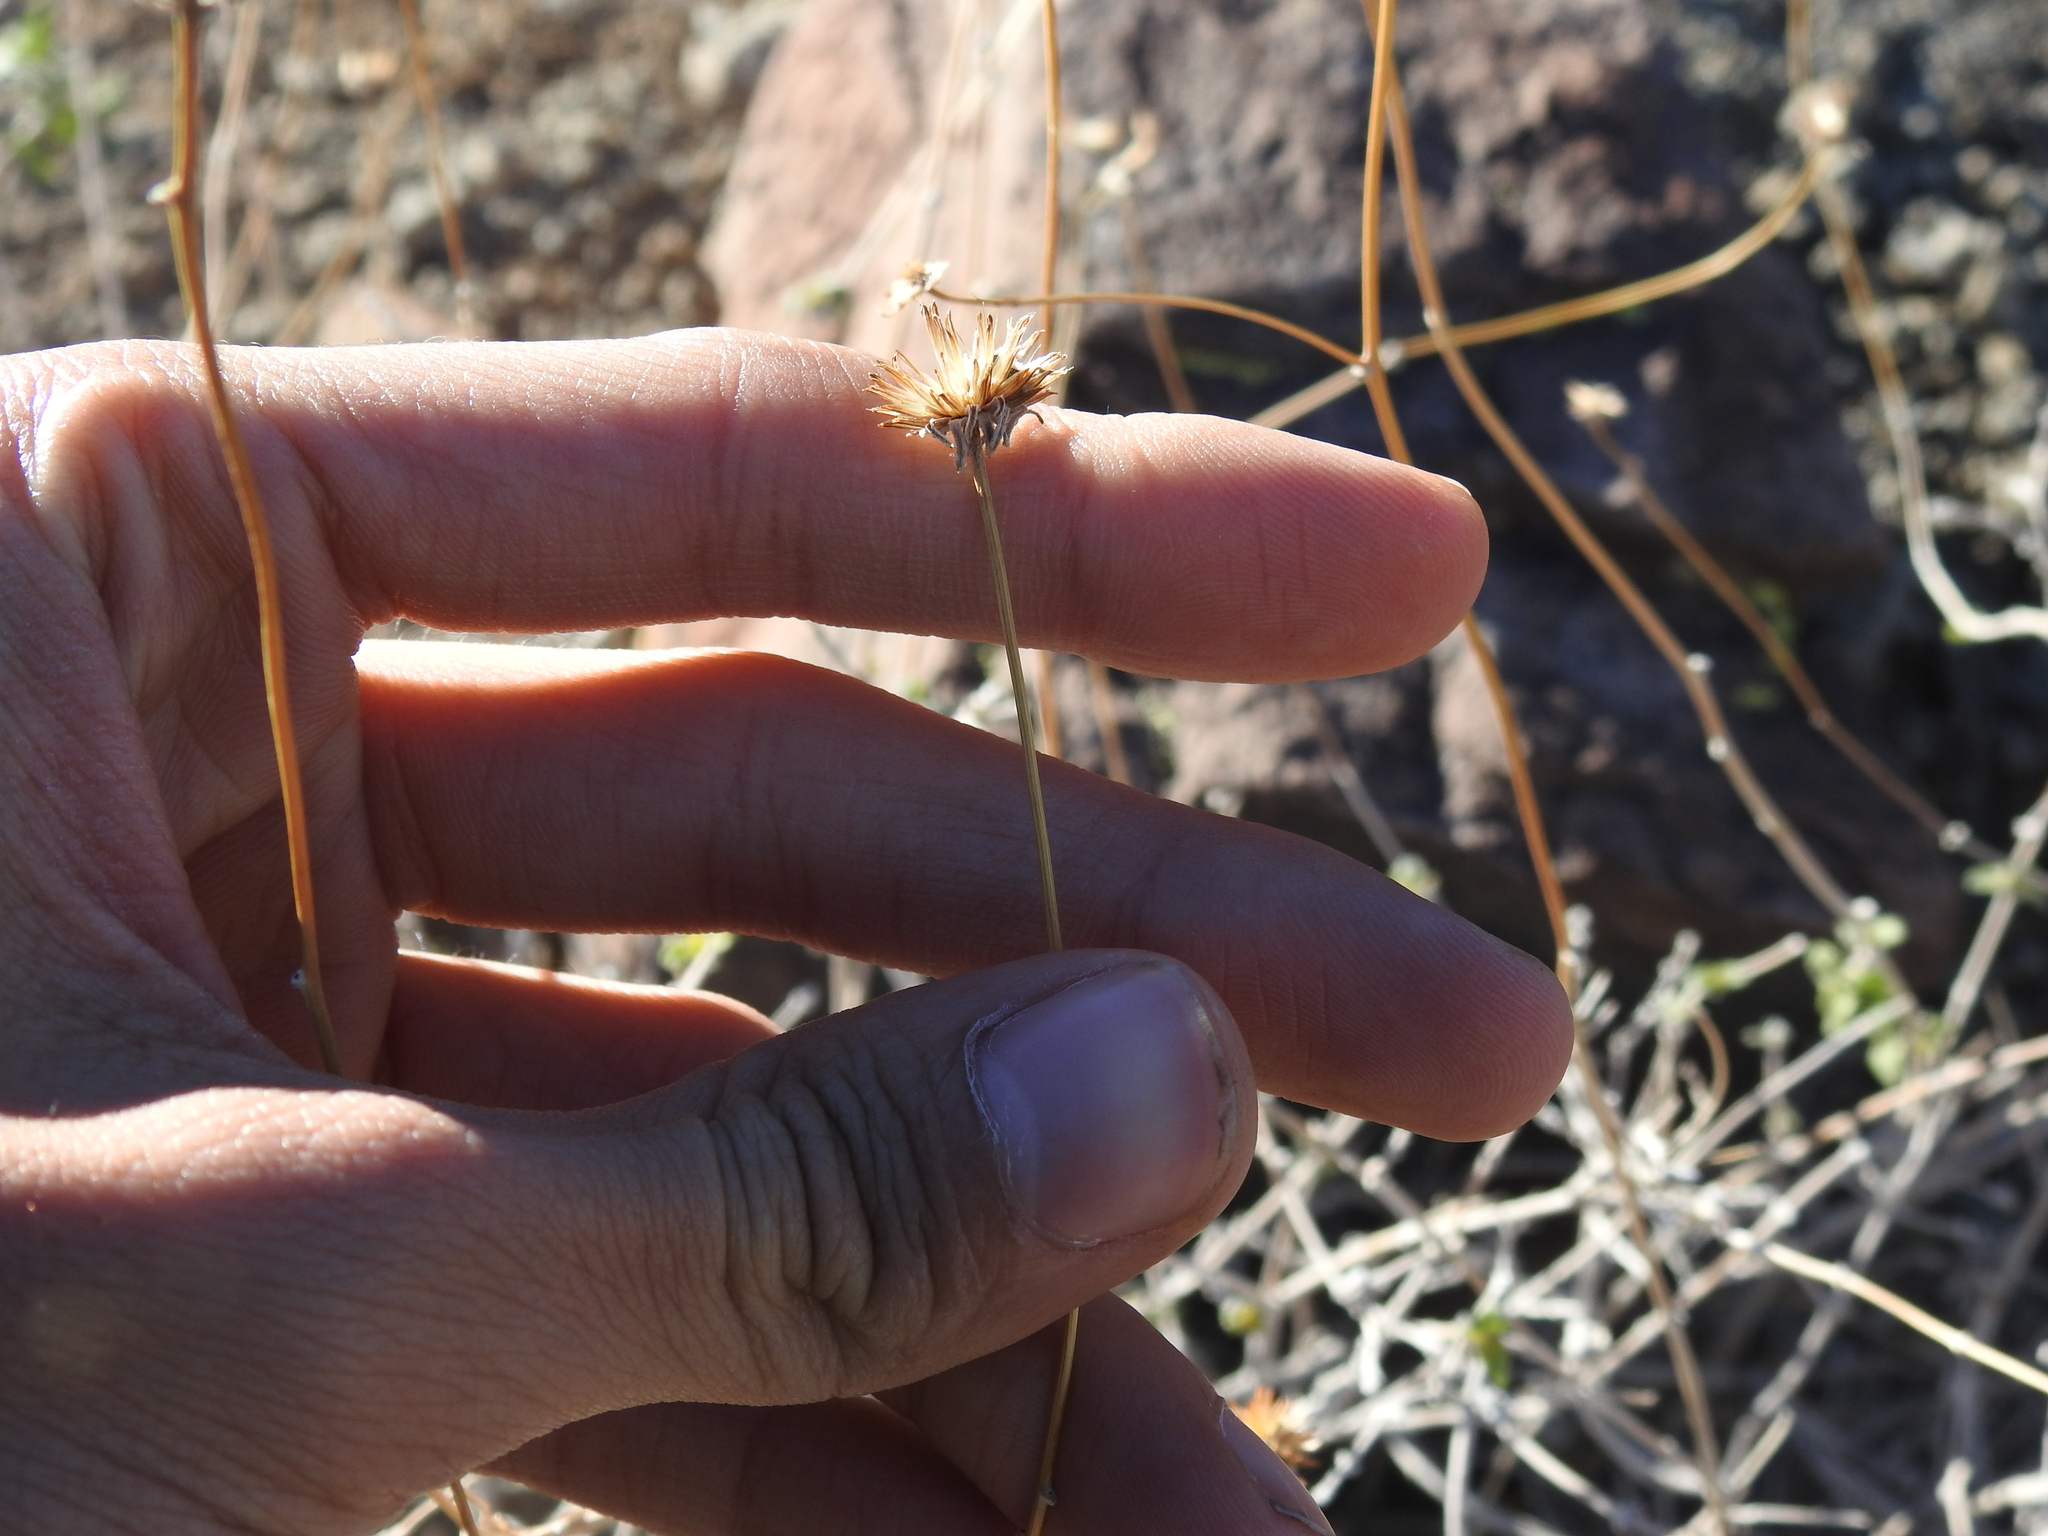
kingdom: Plantae
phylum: Tracheophyta
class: Magnoliopsida
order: Asterales
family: Asteraceae
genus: Bahiopsis
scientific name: Bahiopsis parishii
